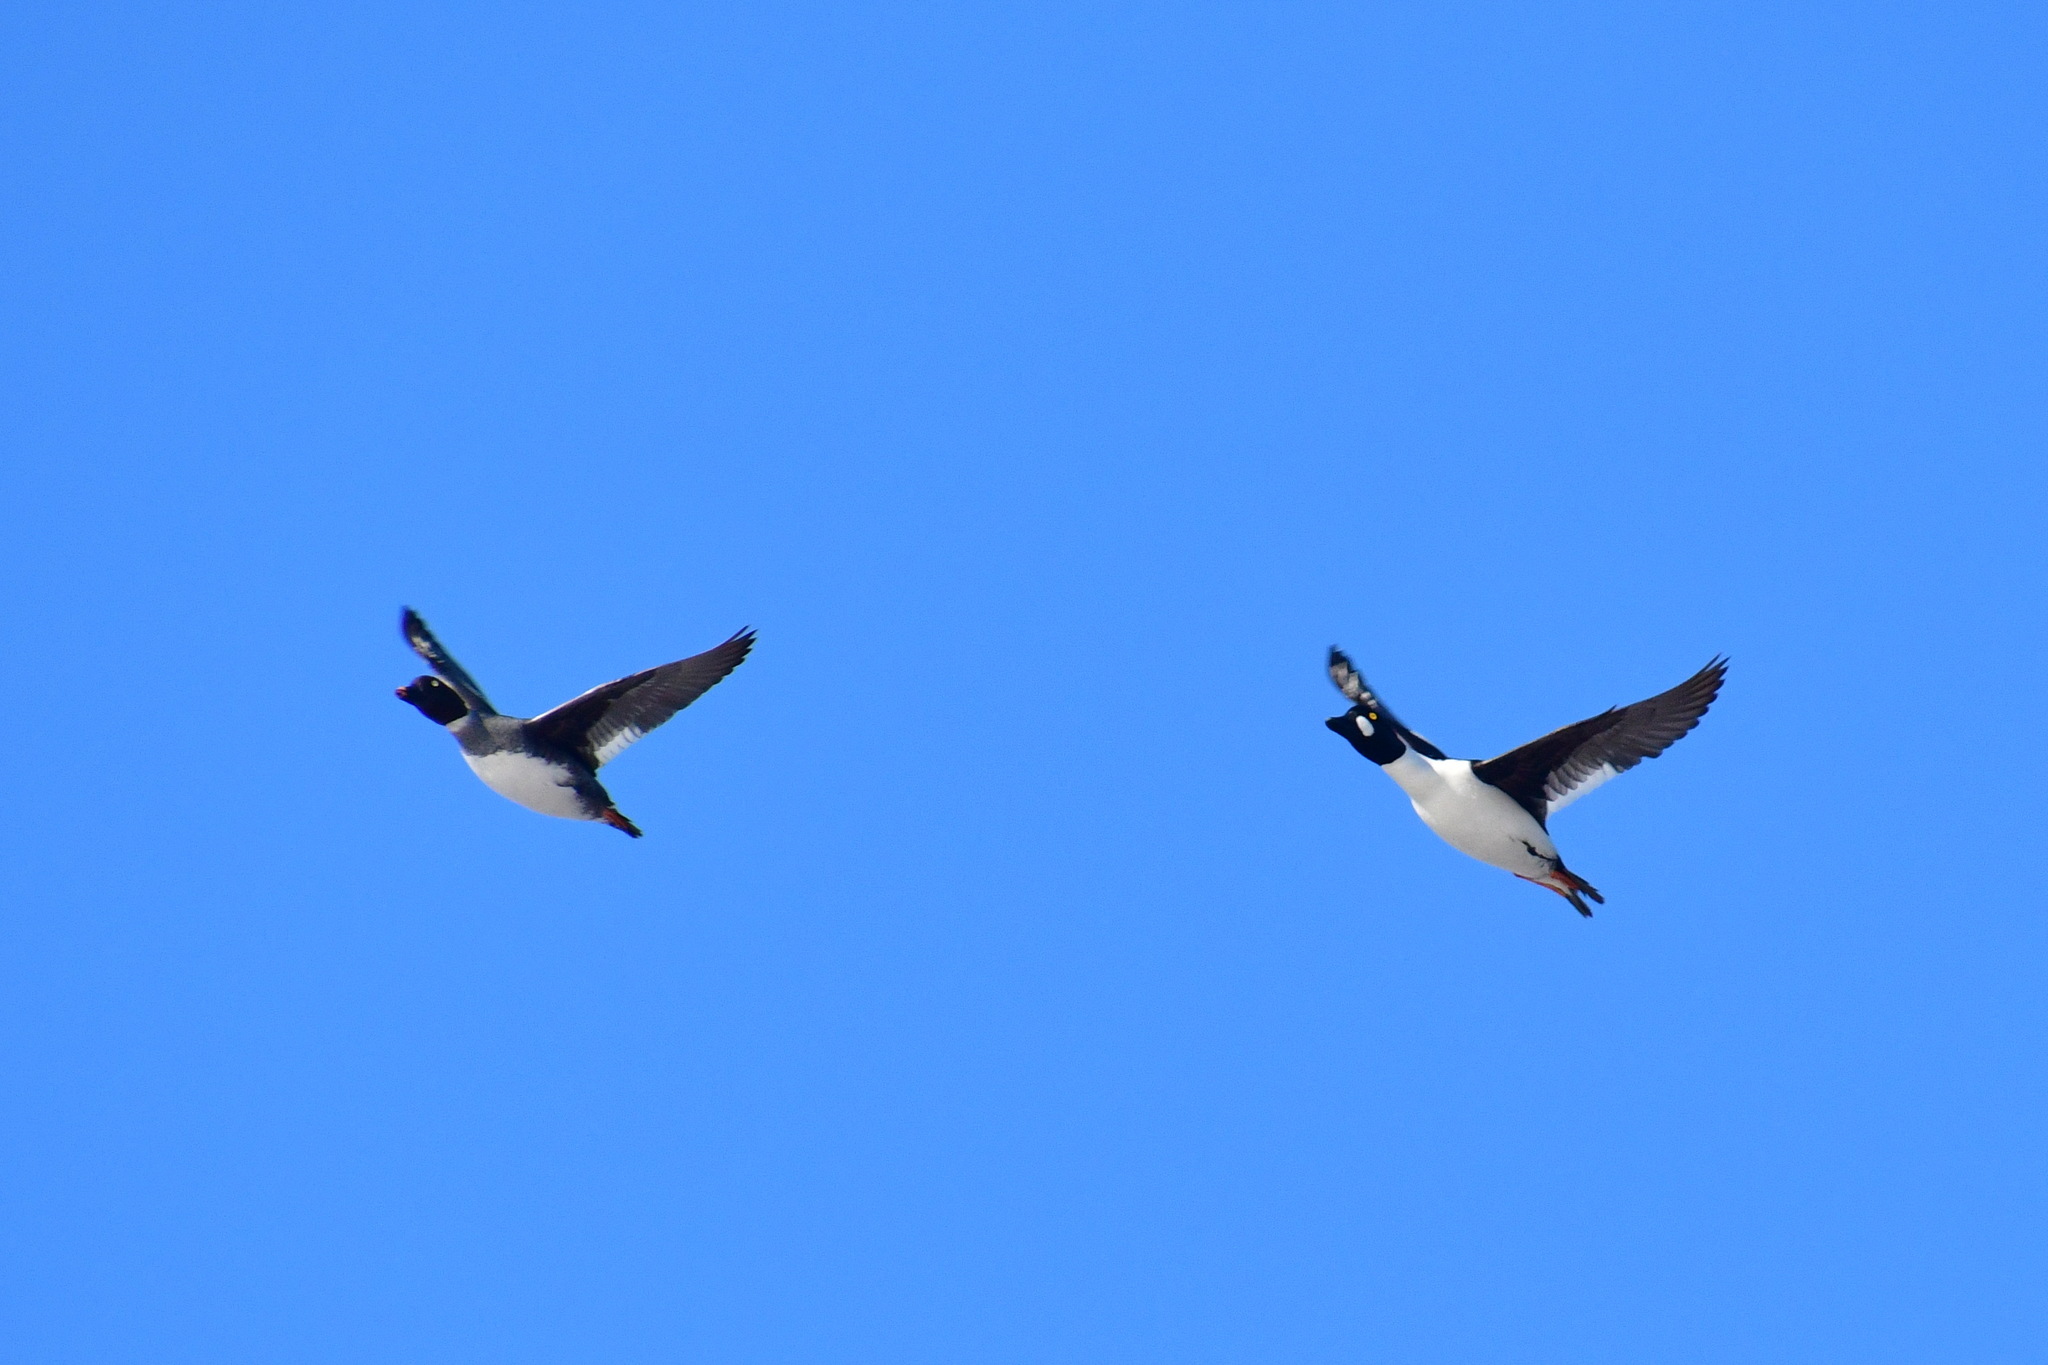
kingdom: Animalia
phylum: Chordata
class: Aves
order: Anseriformes
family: Anatidae
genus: Bucephala
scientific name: Bucephala clangula
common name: Common goldeneye
